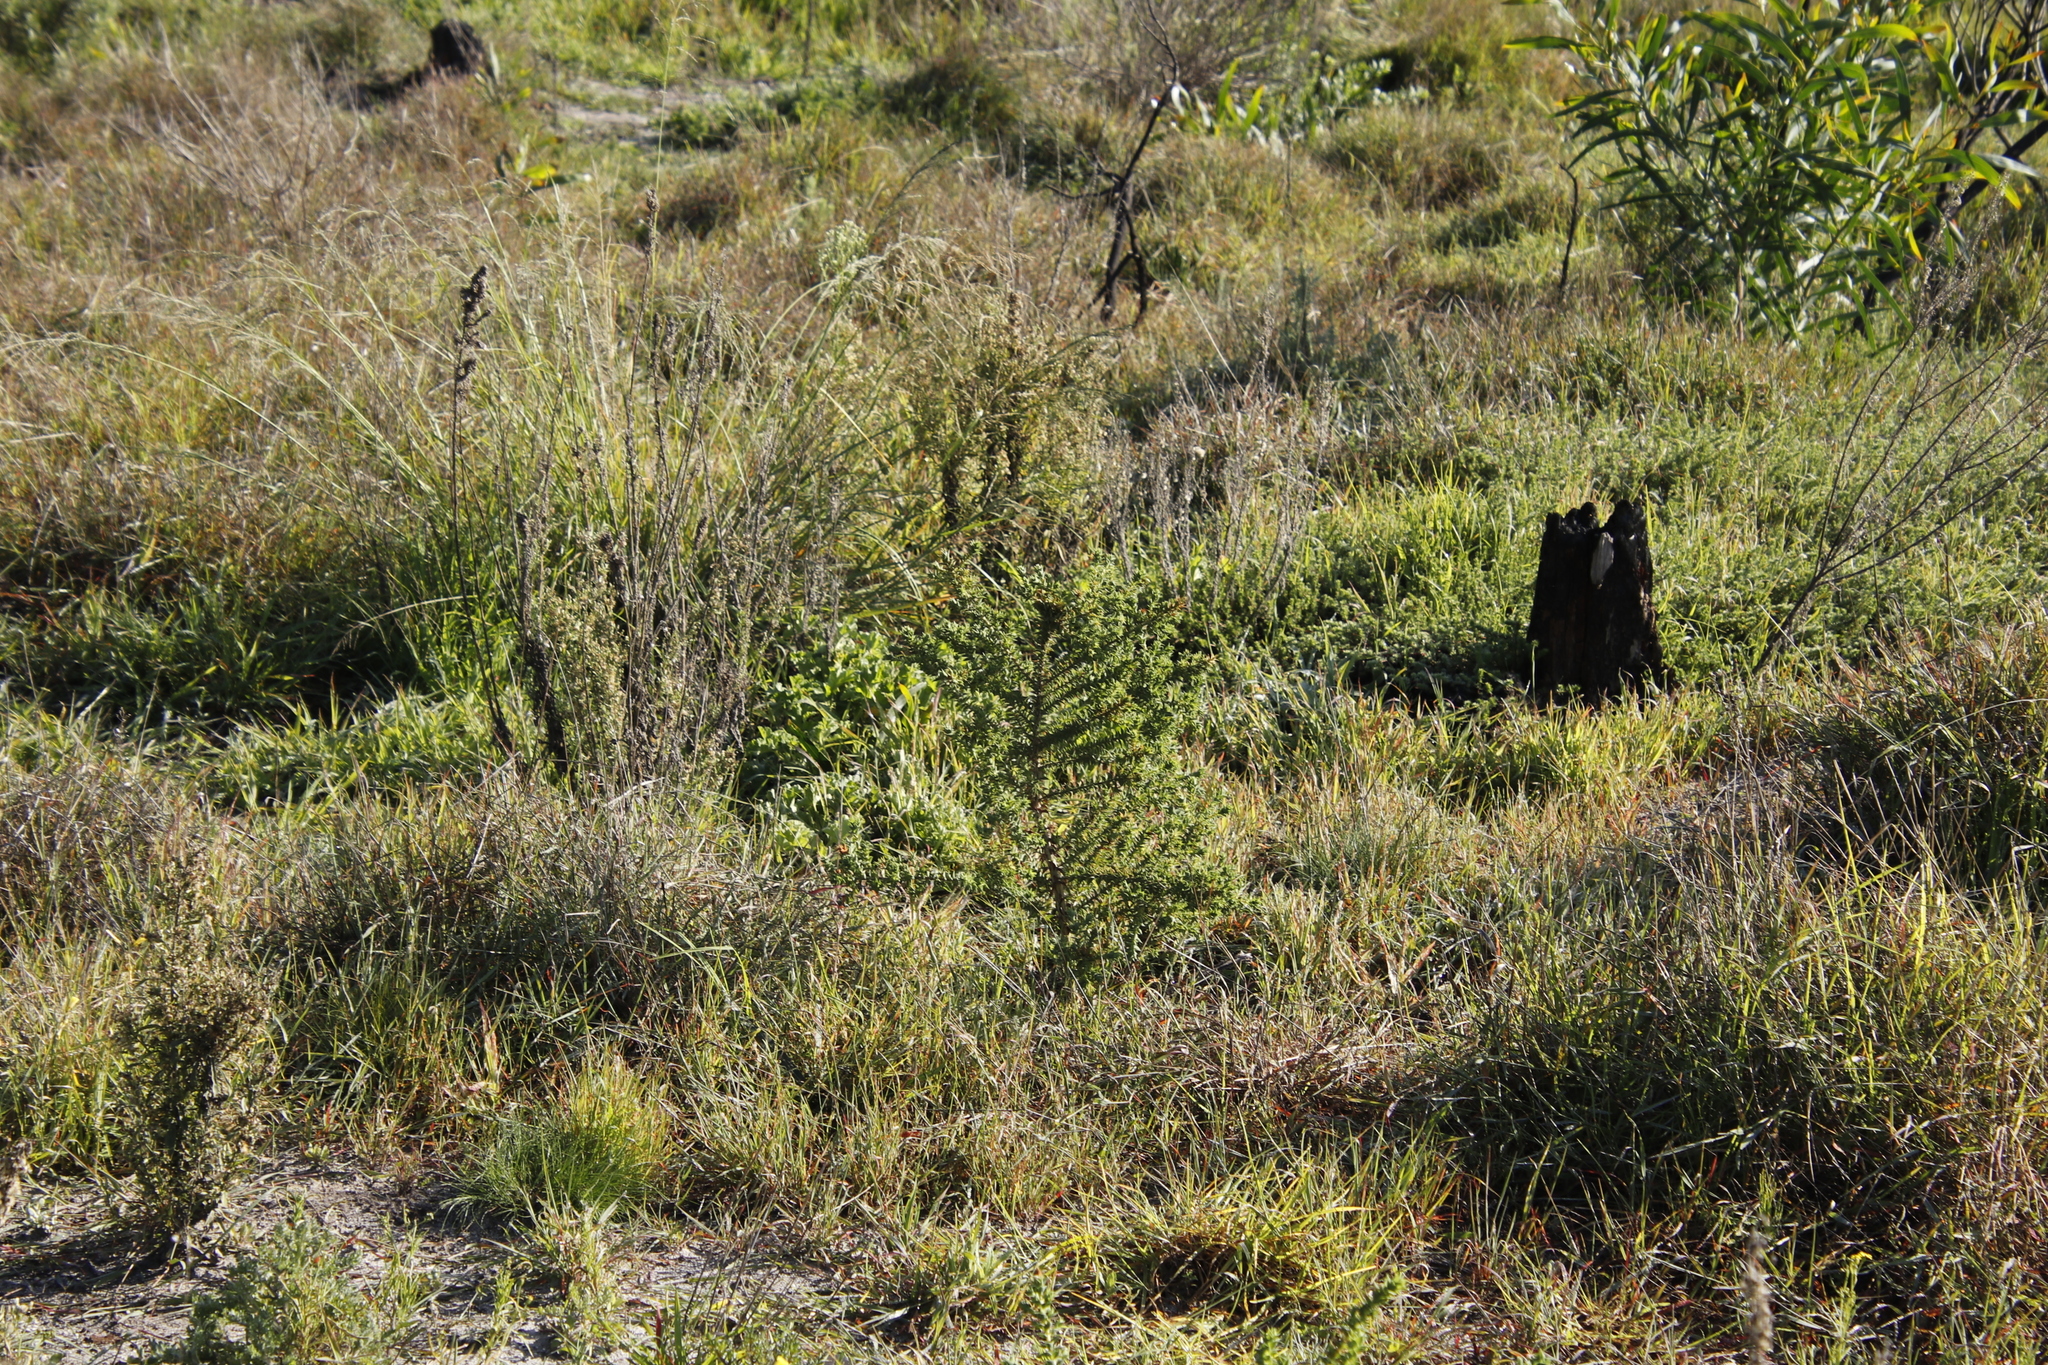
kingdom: Plantae
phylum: Tracheophyta
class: Magnoliopsida
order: Fabales
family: Fabaceae
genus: Aspalathus
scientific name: Aspalathus cordata
